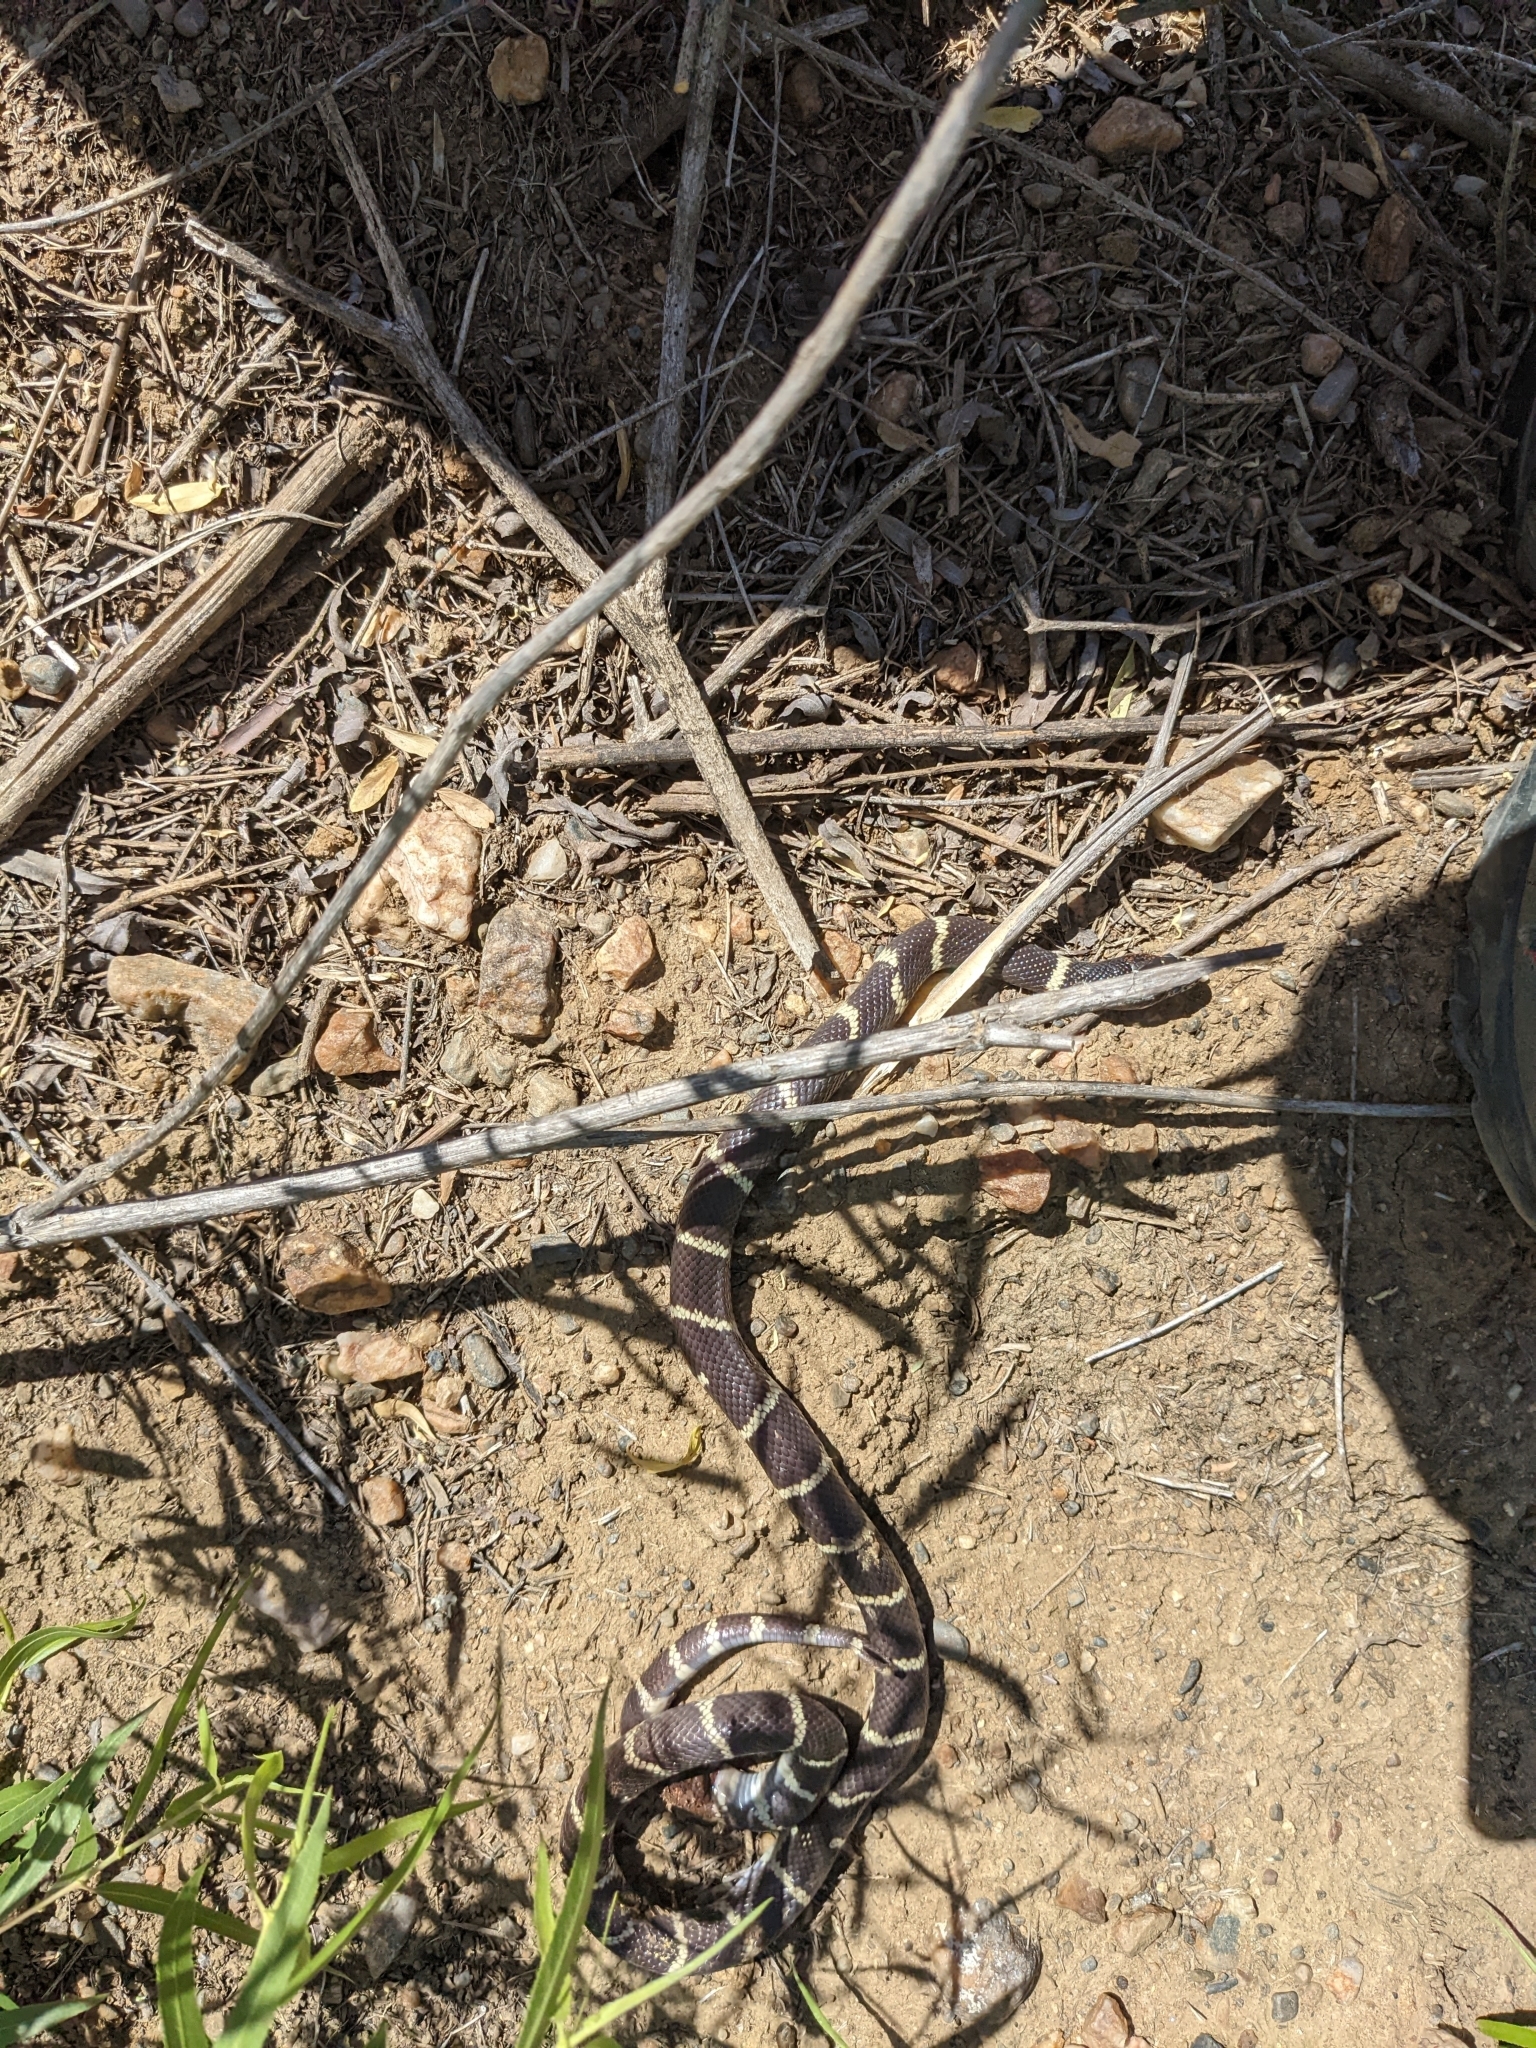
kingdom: Animalia
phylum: Chordata
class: Squamata
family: Colubridae
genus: Lampropeltis
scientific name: Lampropeltis californiae
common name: California kingsnake
